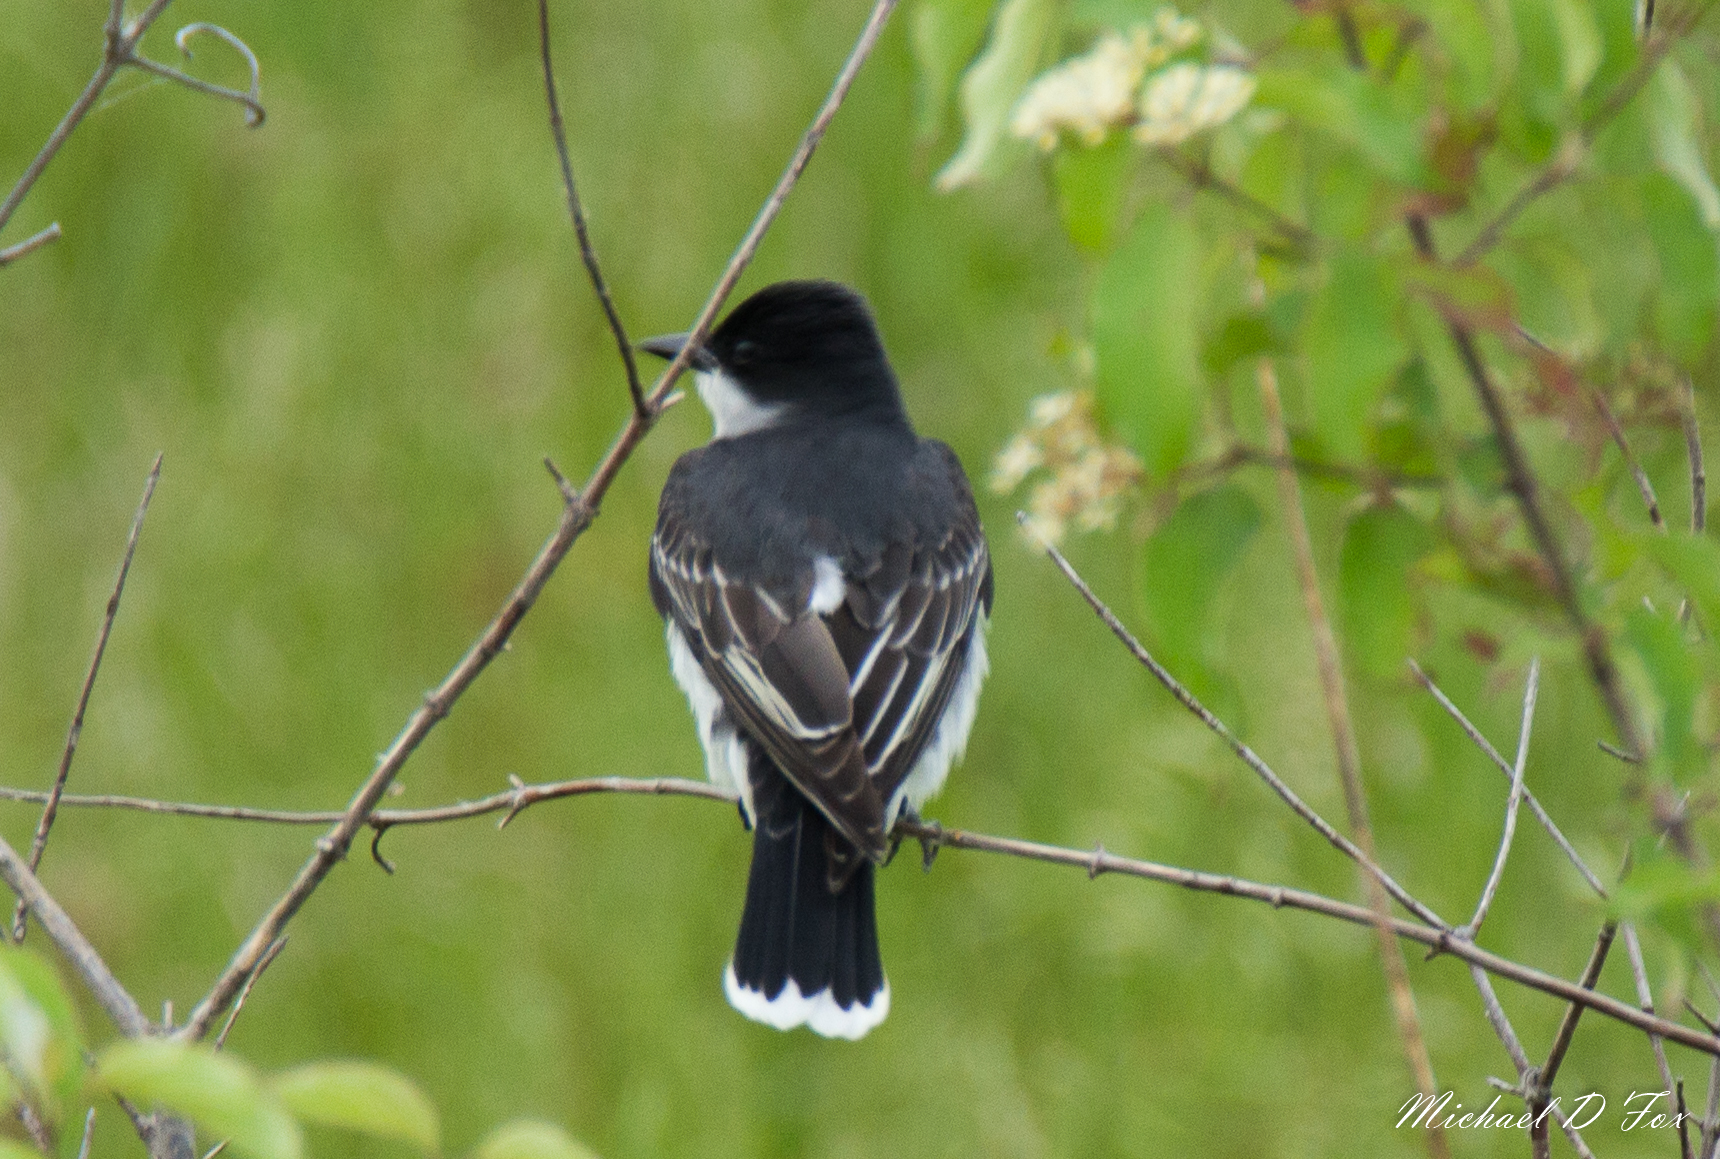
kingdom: Animalia
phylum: Chordata
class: Aves
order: Passeriformes
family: Tyrannidae
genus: Tyrannus
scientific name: Tyrannus tyrannus
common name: Eastern kingbird
